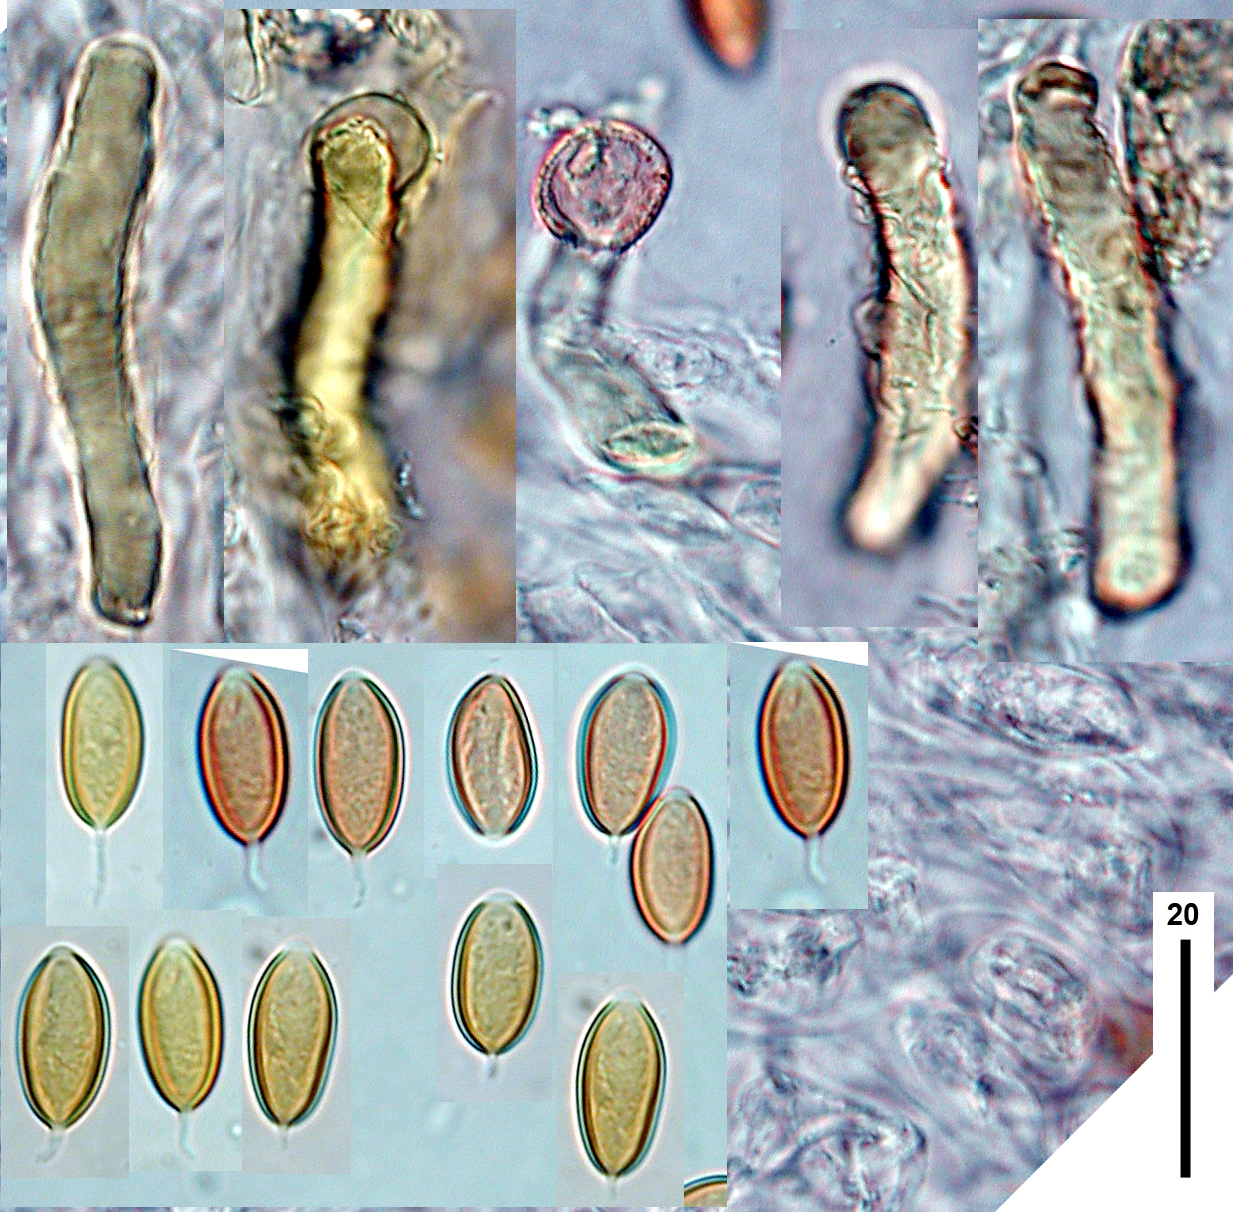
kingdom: Fungi
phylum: Basidiomycota
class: Agaricomycetes
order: Agaricales
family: Agaricaceae
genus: Clavogaster
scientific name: Clavogaster virescens
